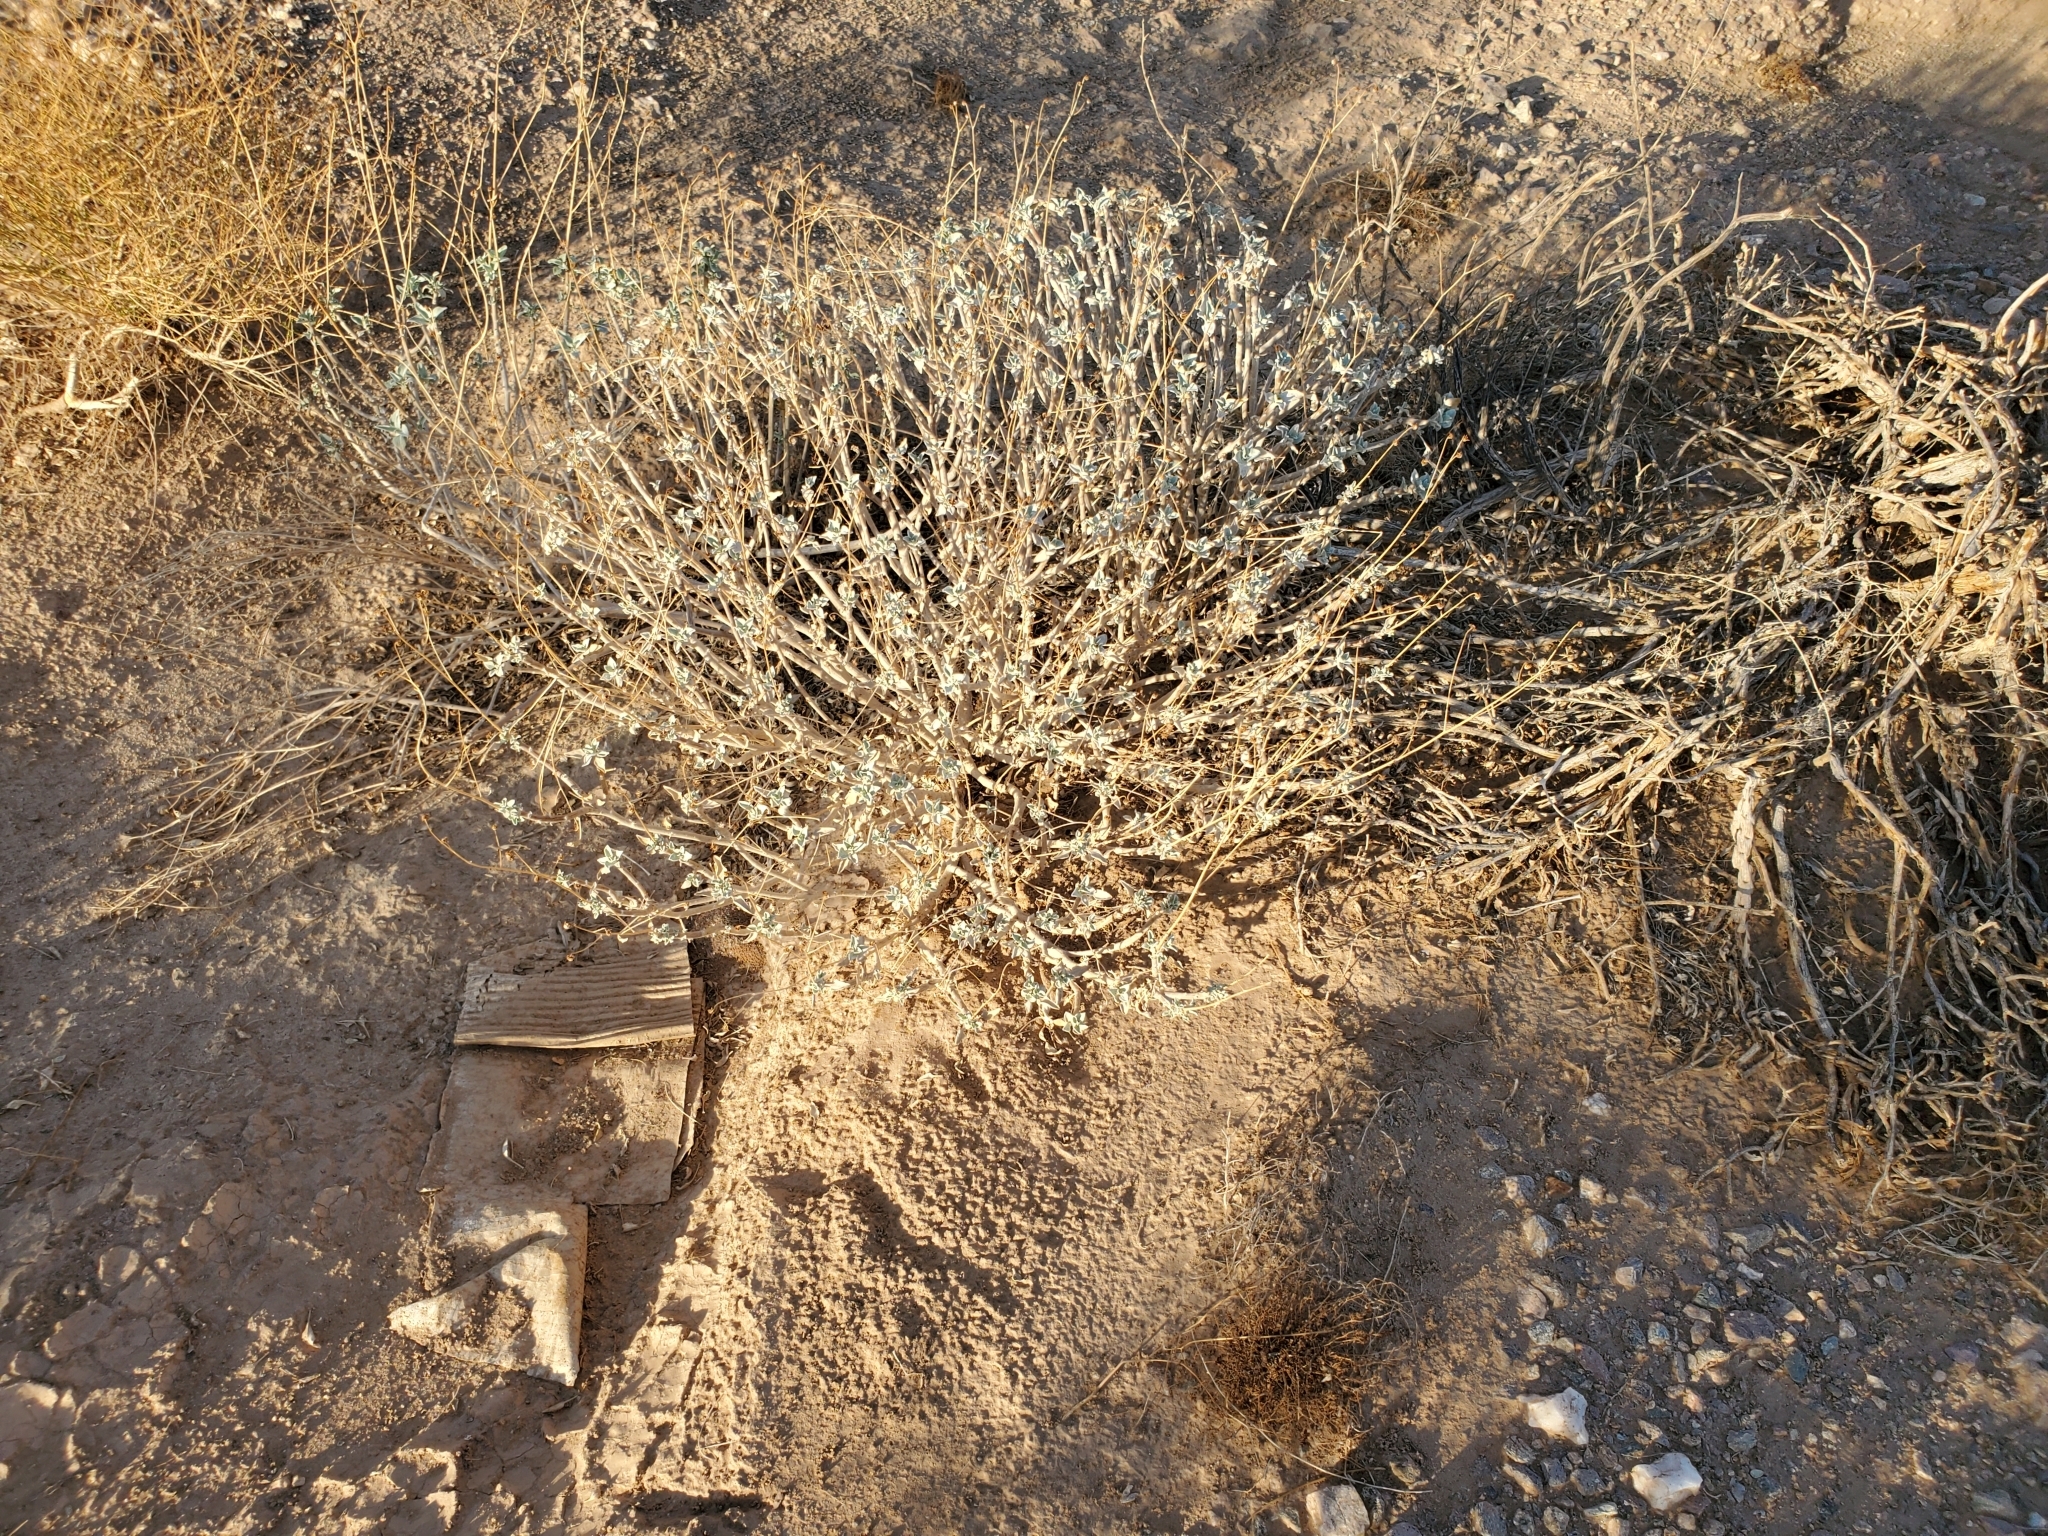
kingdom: Plantae
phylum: Tracheophyta
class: Magnoliopsida
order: Asterales
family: Asteraceae
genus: Encelia
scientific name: Encelia farinosa
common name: Brittlebush
